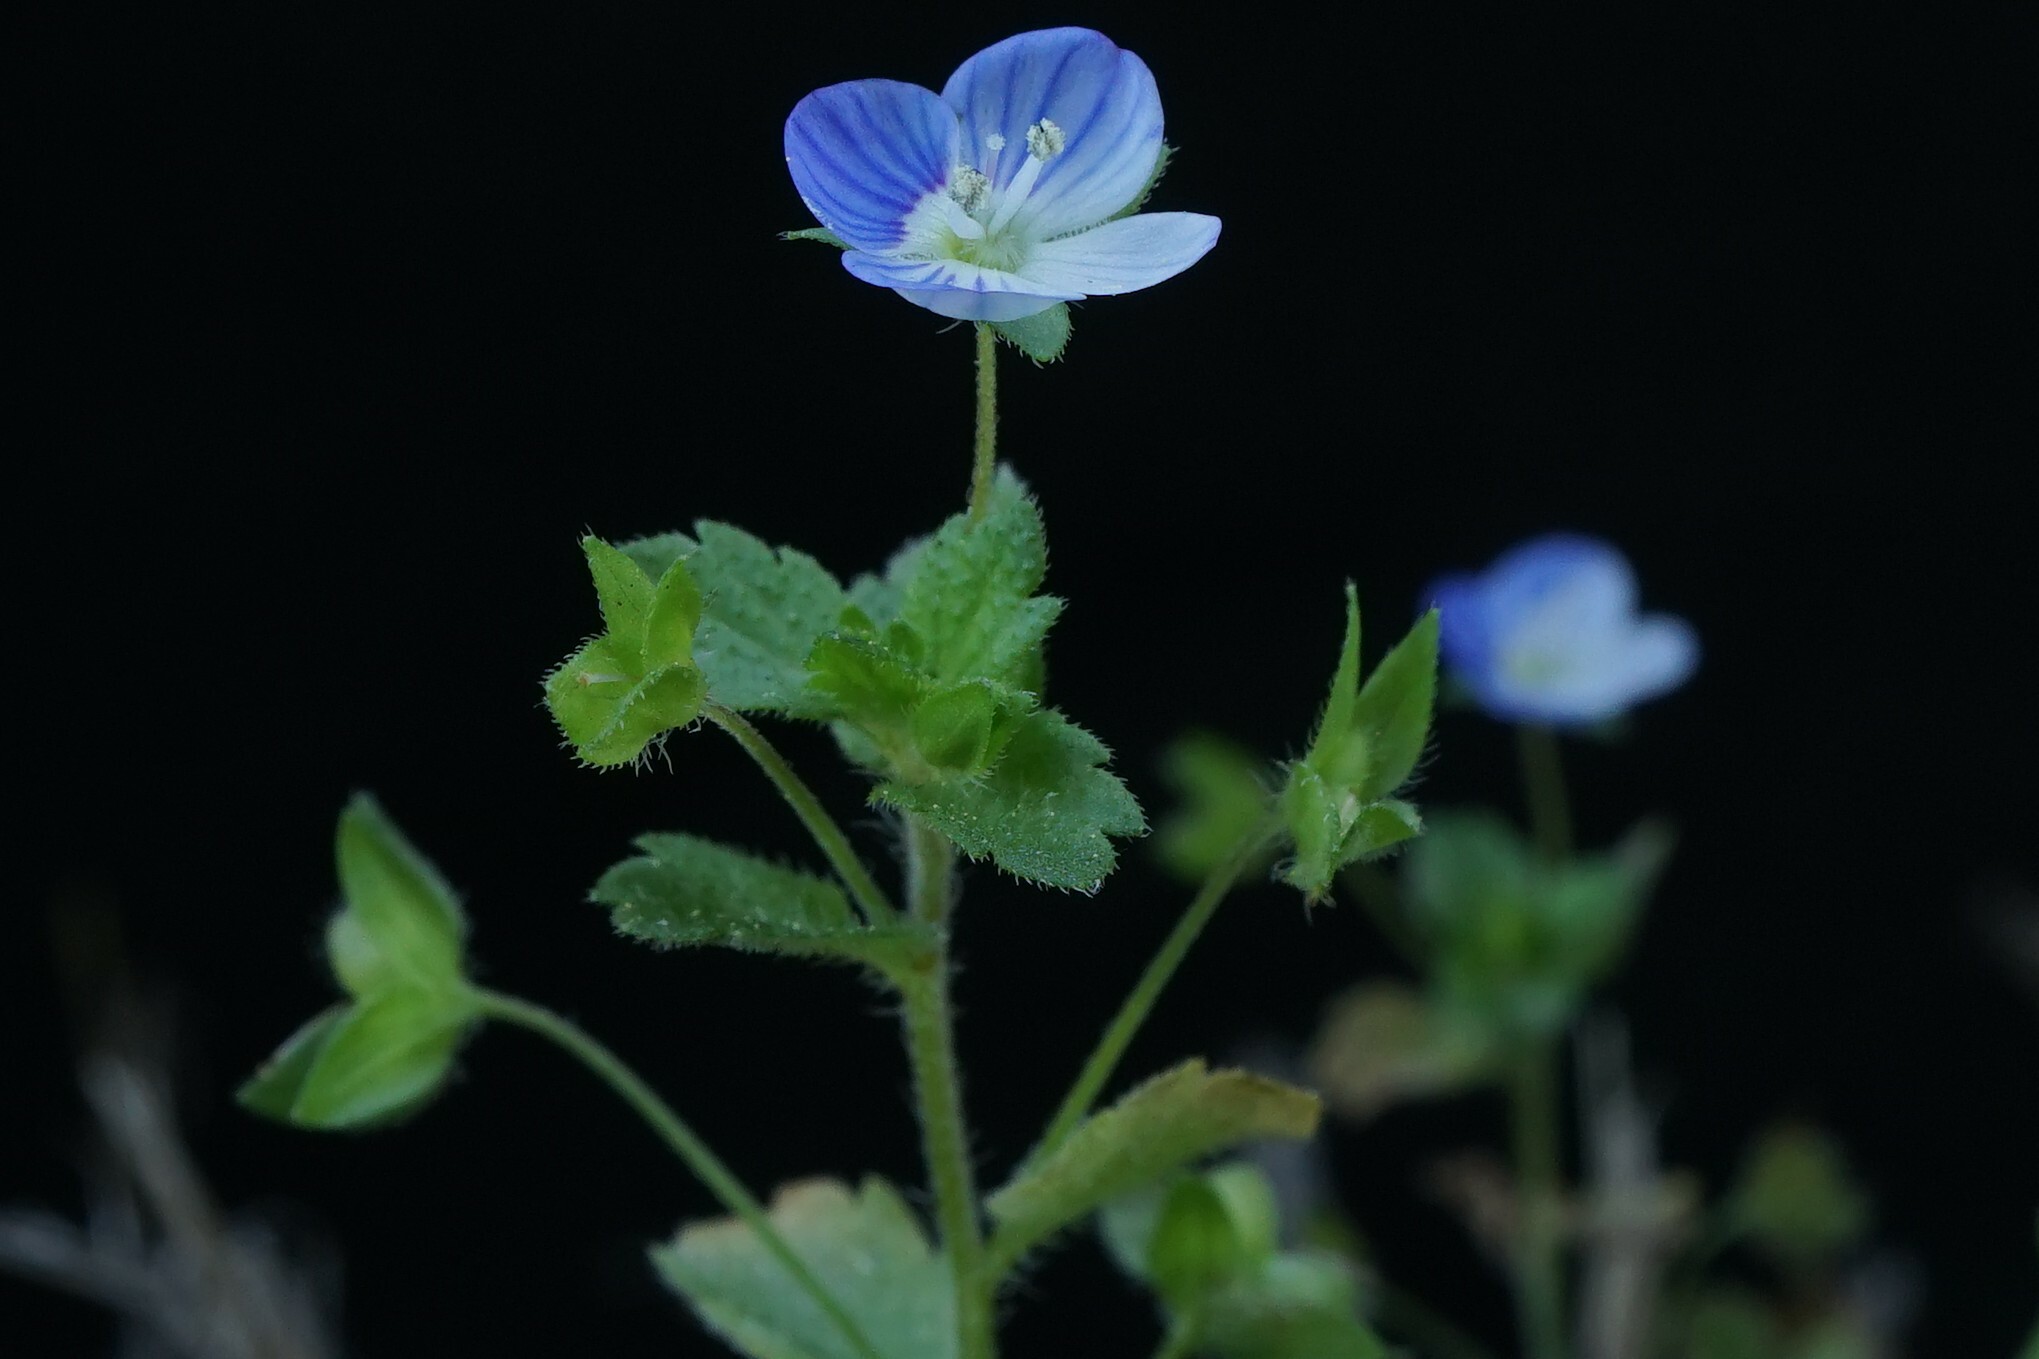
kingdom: Plantae
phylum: Tracheophyta
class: Magnoliopsida
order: Lamiales
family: Plantaginaceae
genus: Veronica
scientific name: Veronica persica
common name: Common field-speedwell
